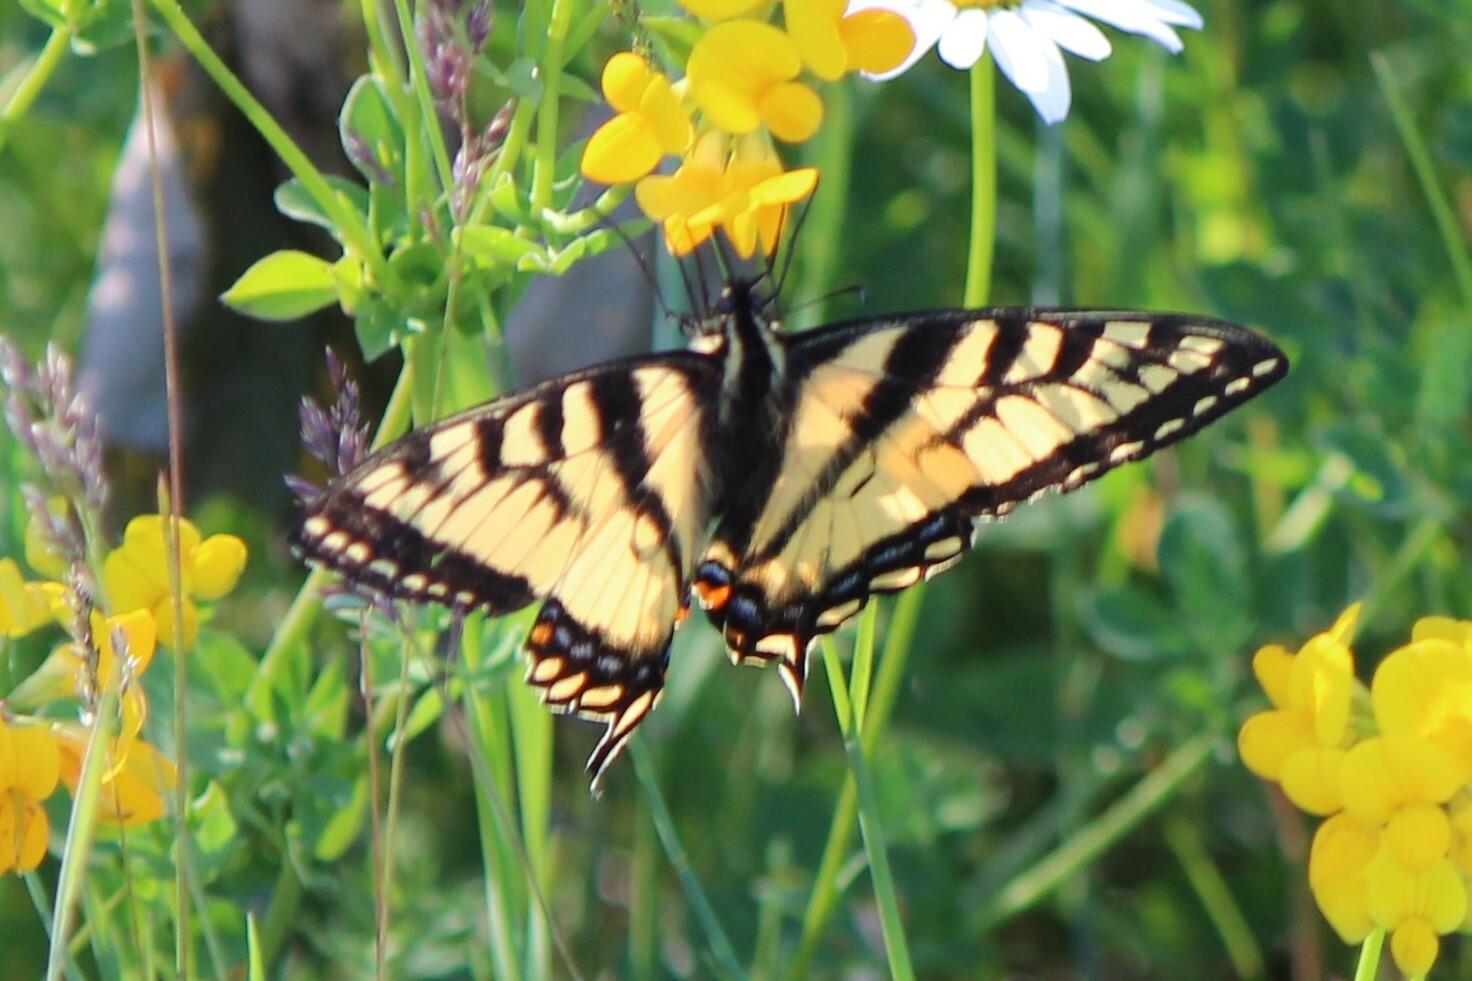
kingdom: Animalia
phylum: Arthropoda
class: Insecta
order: Lepidoptera
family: Papilionidae
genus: Papilio
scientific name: Papilio canadensis
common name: Canadian tiger swallowtail
